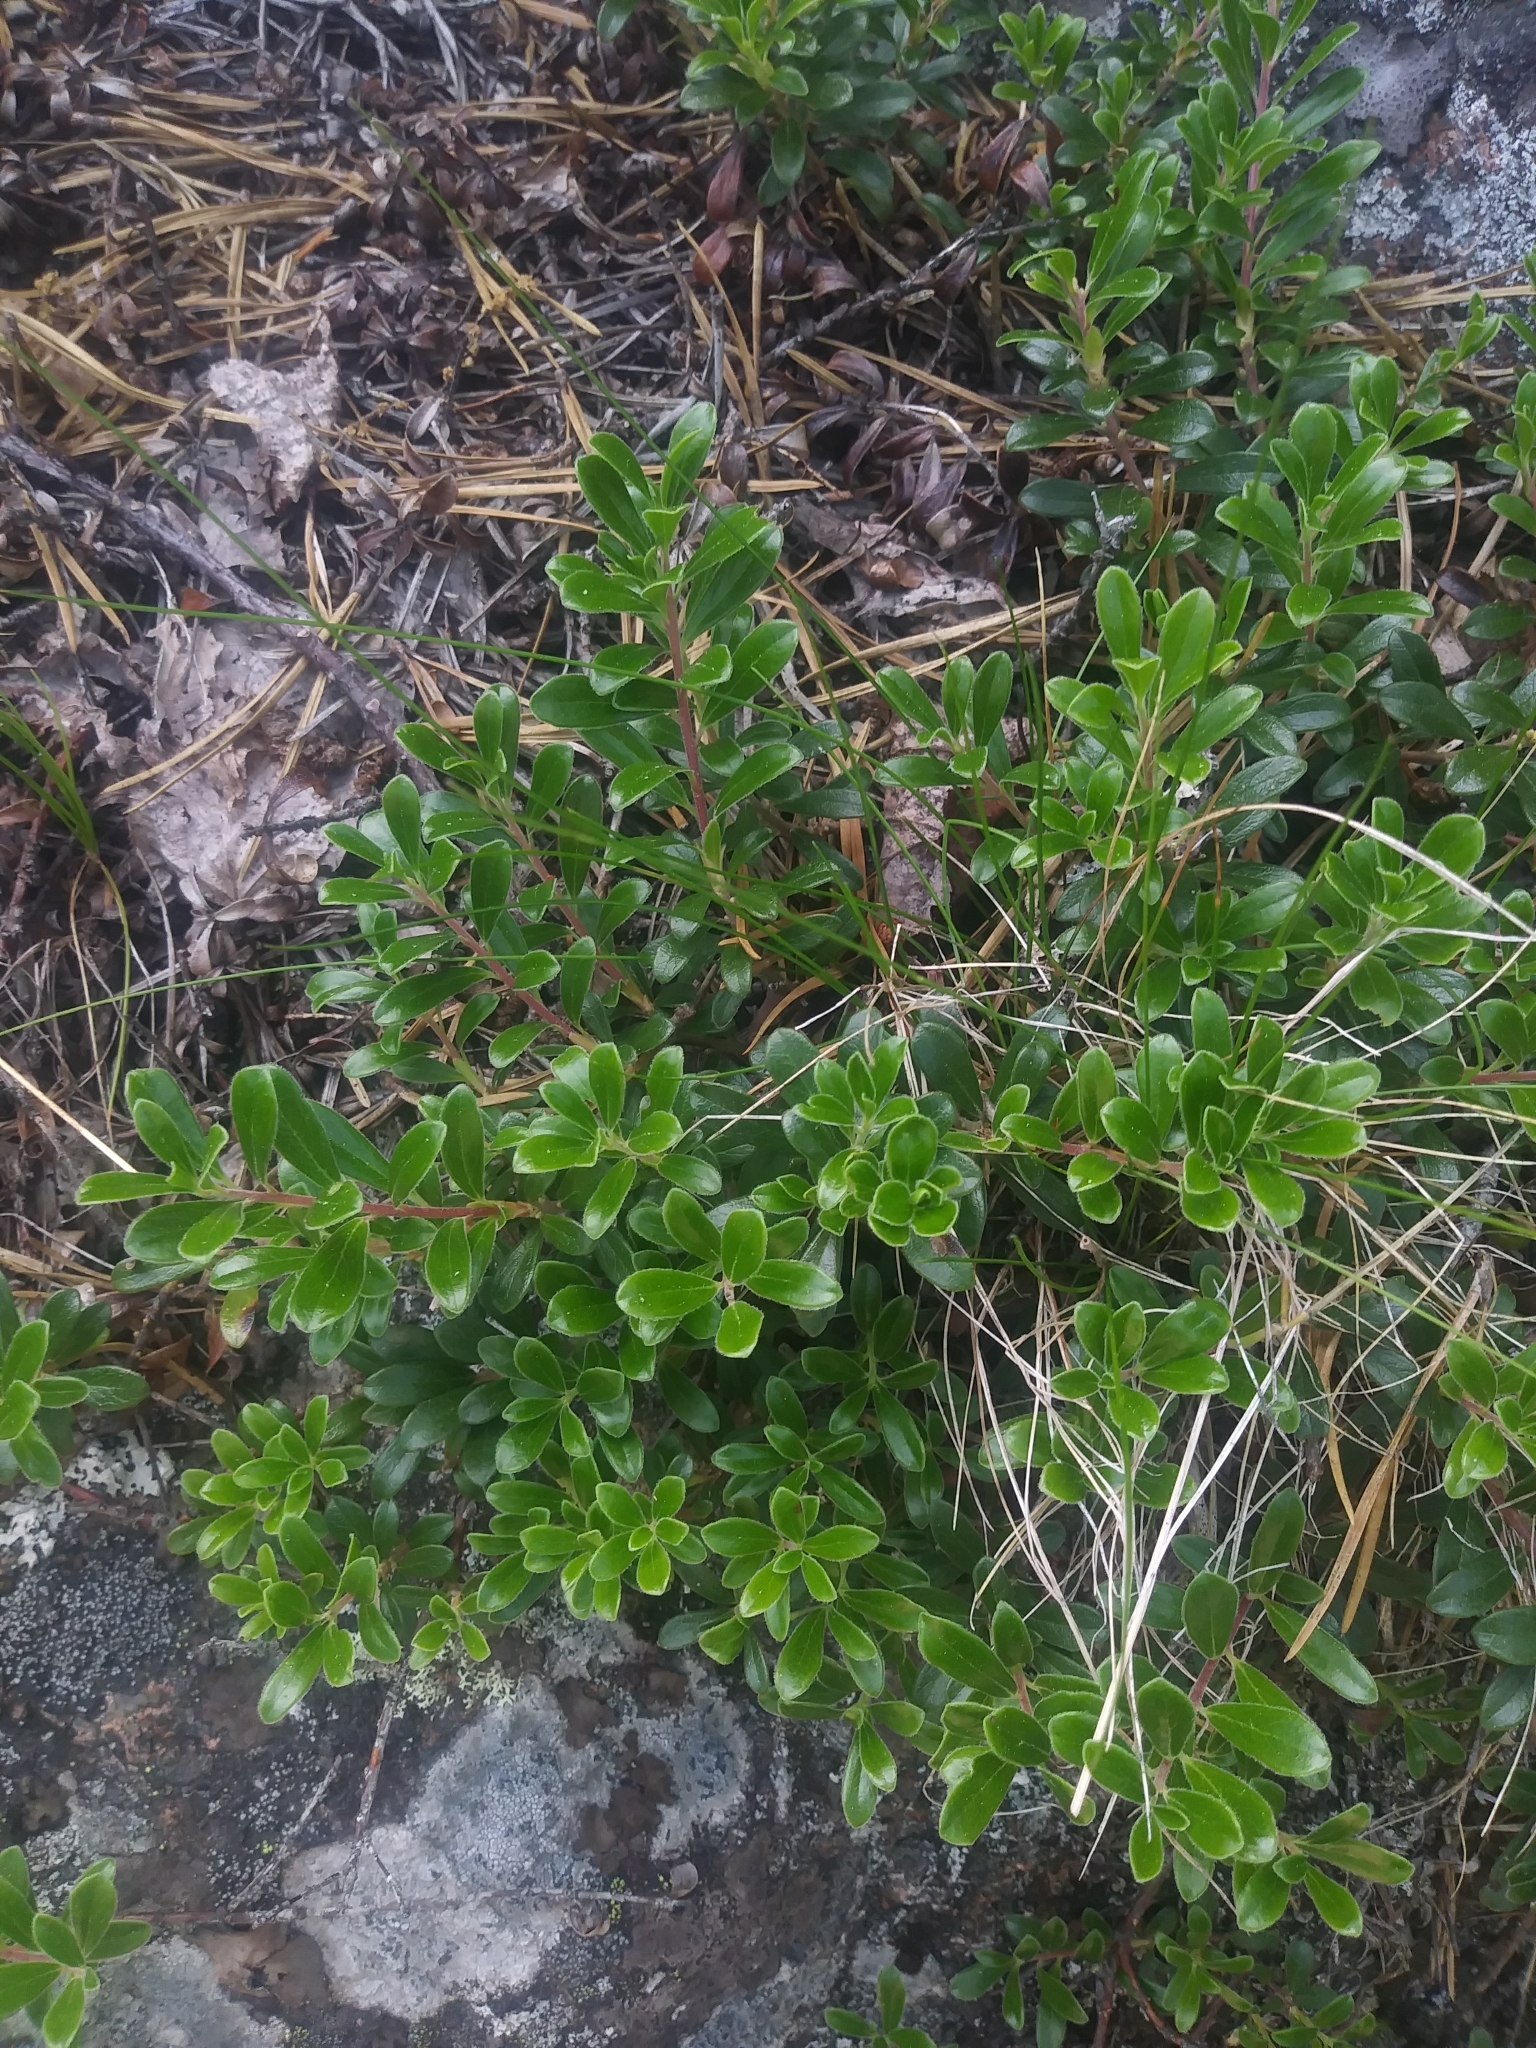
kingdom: Plantae
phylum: Tracheophyta
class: Magnoliopsida
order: Ericales
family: Ericaceae
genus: Arctostaphylos
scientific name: Arctostaphylos uva-ursi
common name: Bearberry
